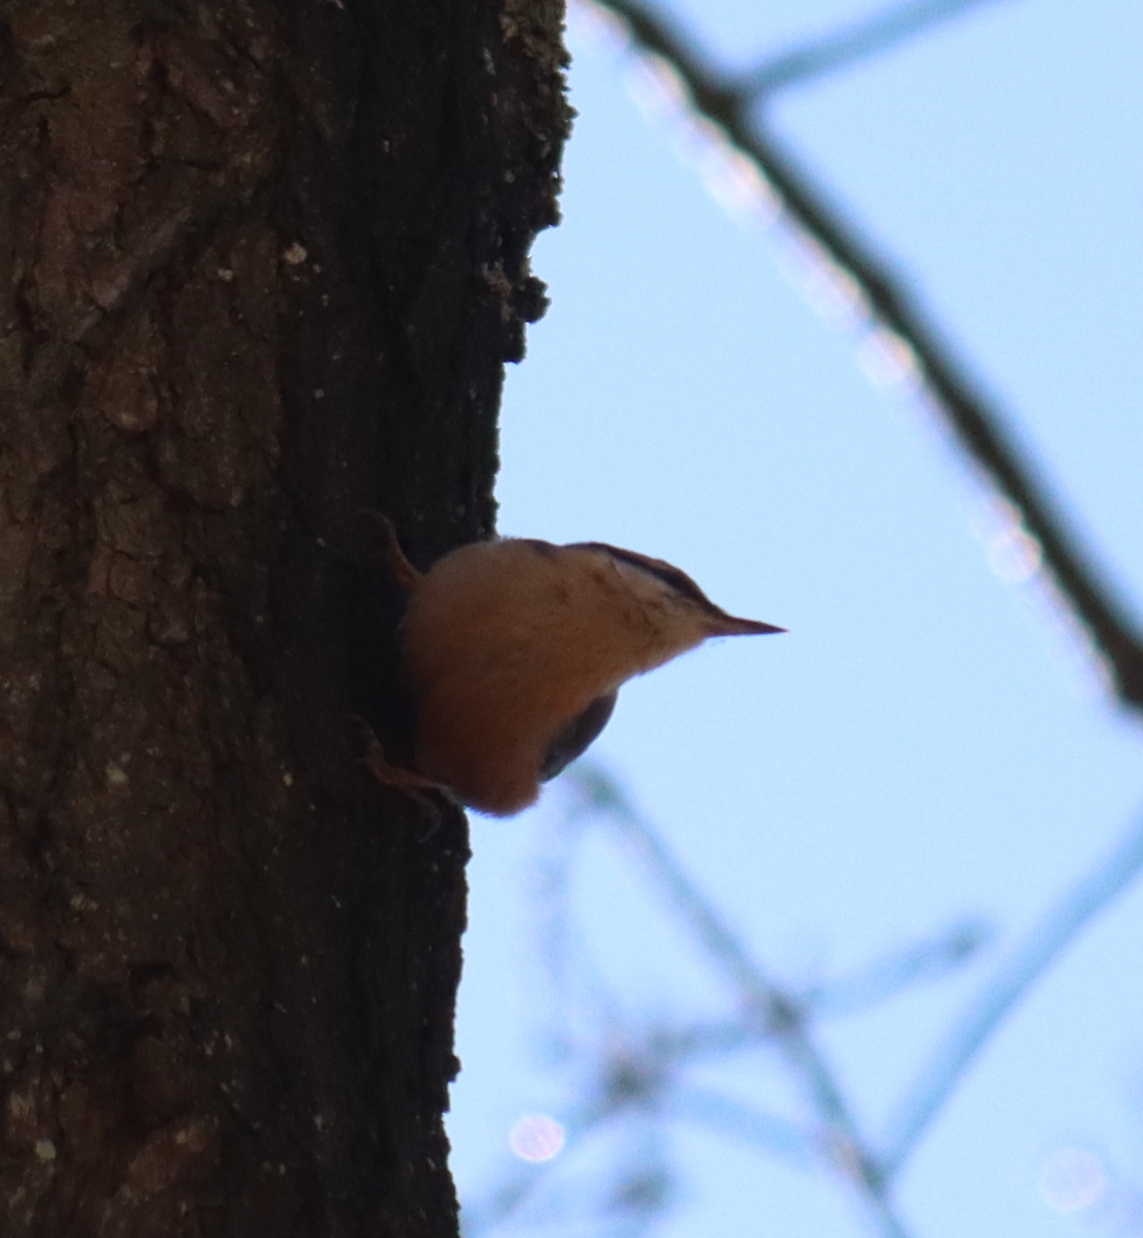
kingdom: Animalia
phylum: Chordata
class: Aves
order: Passeriformes
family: Sittidae
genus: Sitta
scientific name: Sitta europaea
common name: Eurasian nuthatch
